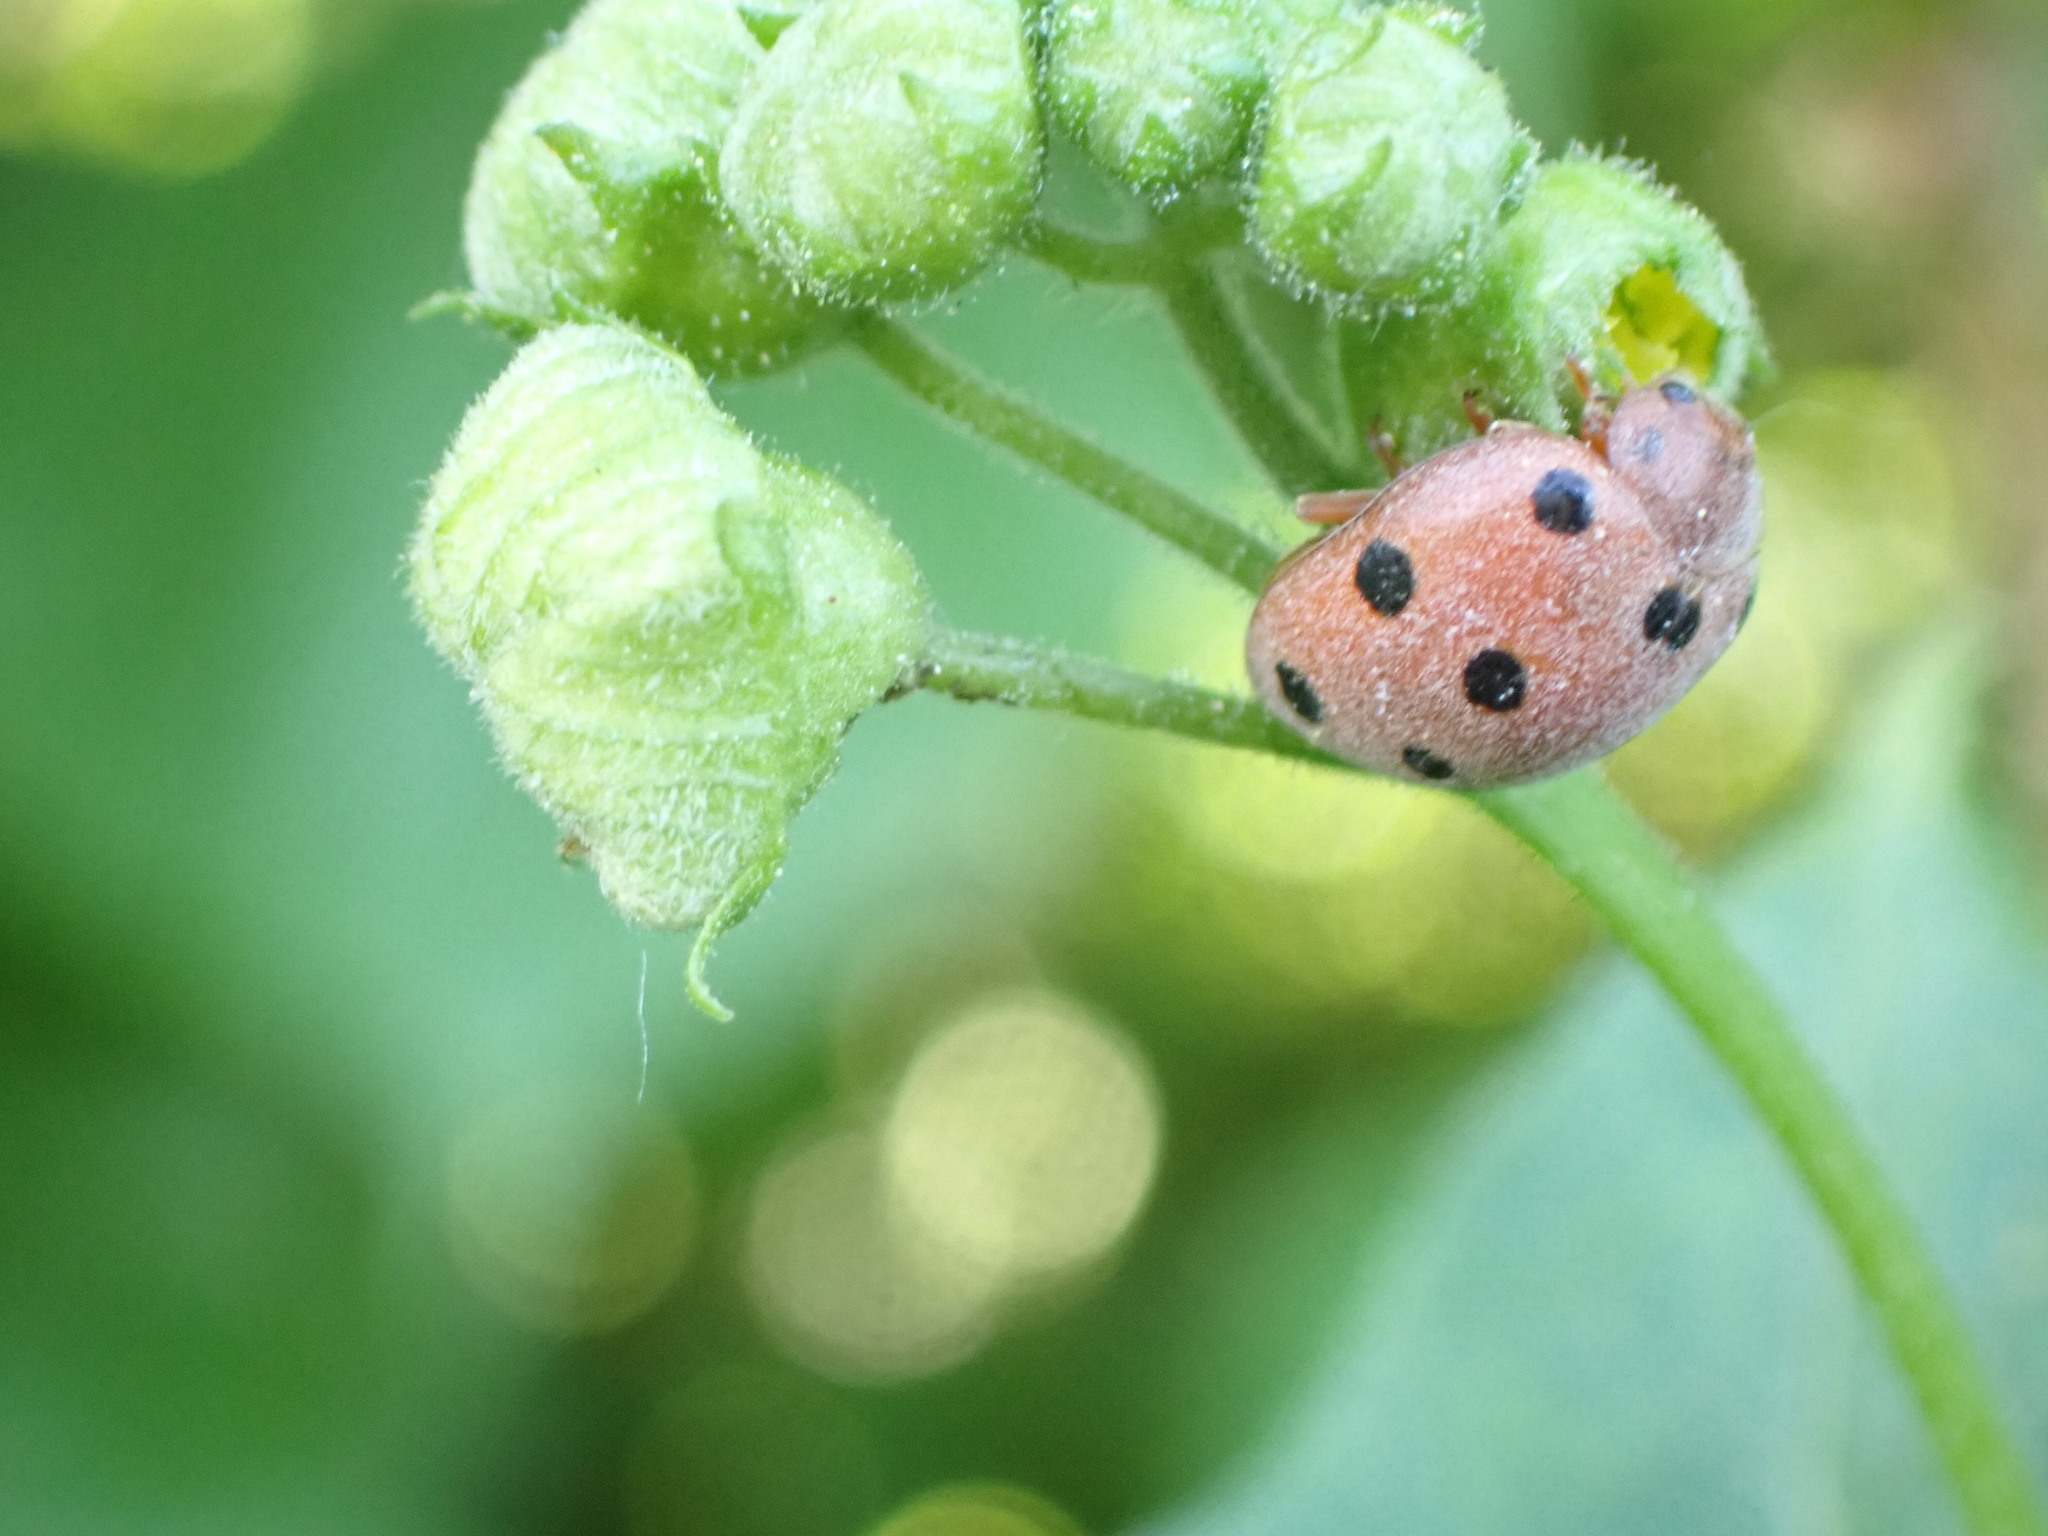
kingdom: Animalia
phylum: Arthropoda
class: Insecta
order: Coleoptera
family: Coccinellidae
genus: Henosepilachna
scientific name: Henosepilachna argus
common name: Bryony ladybird
